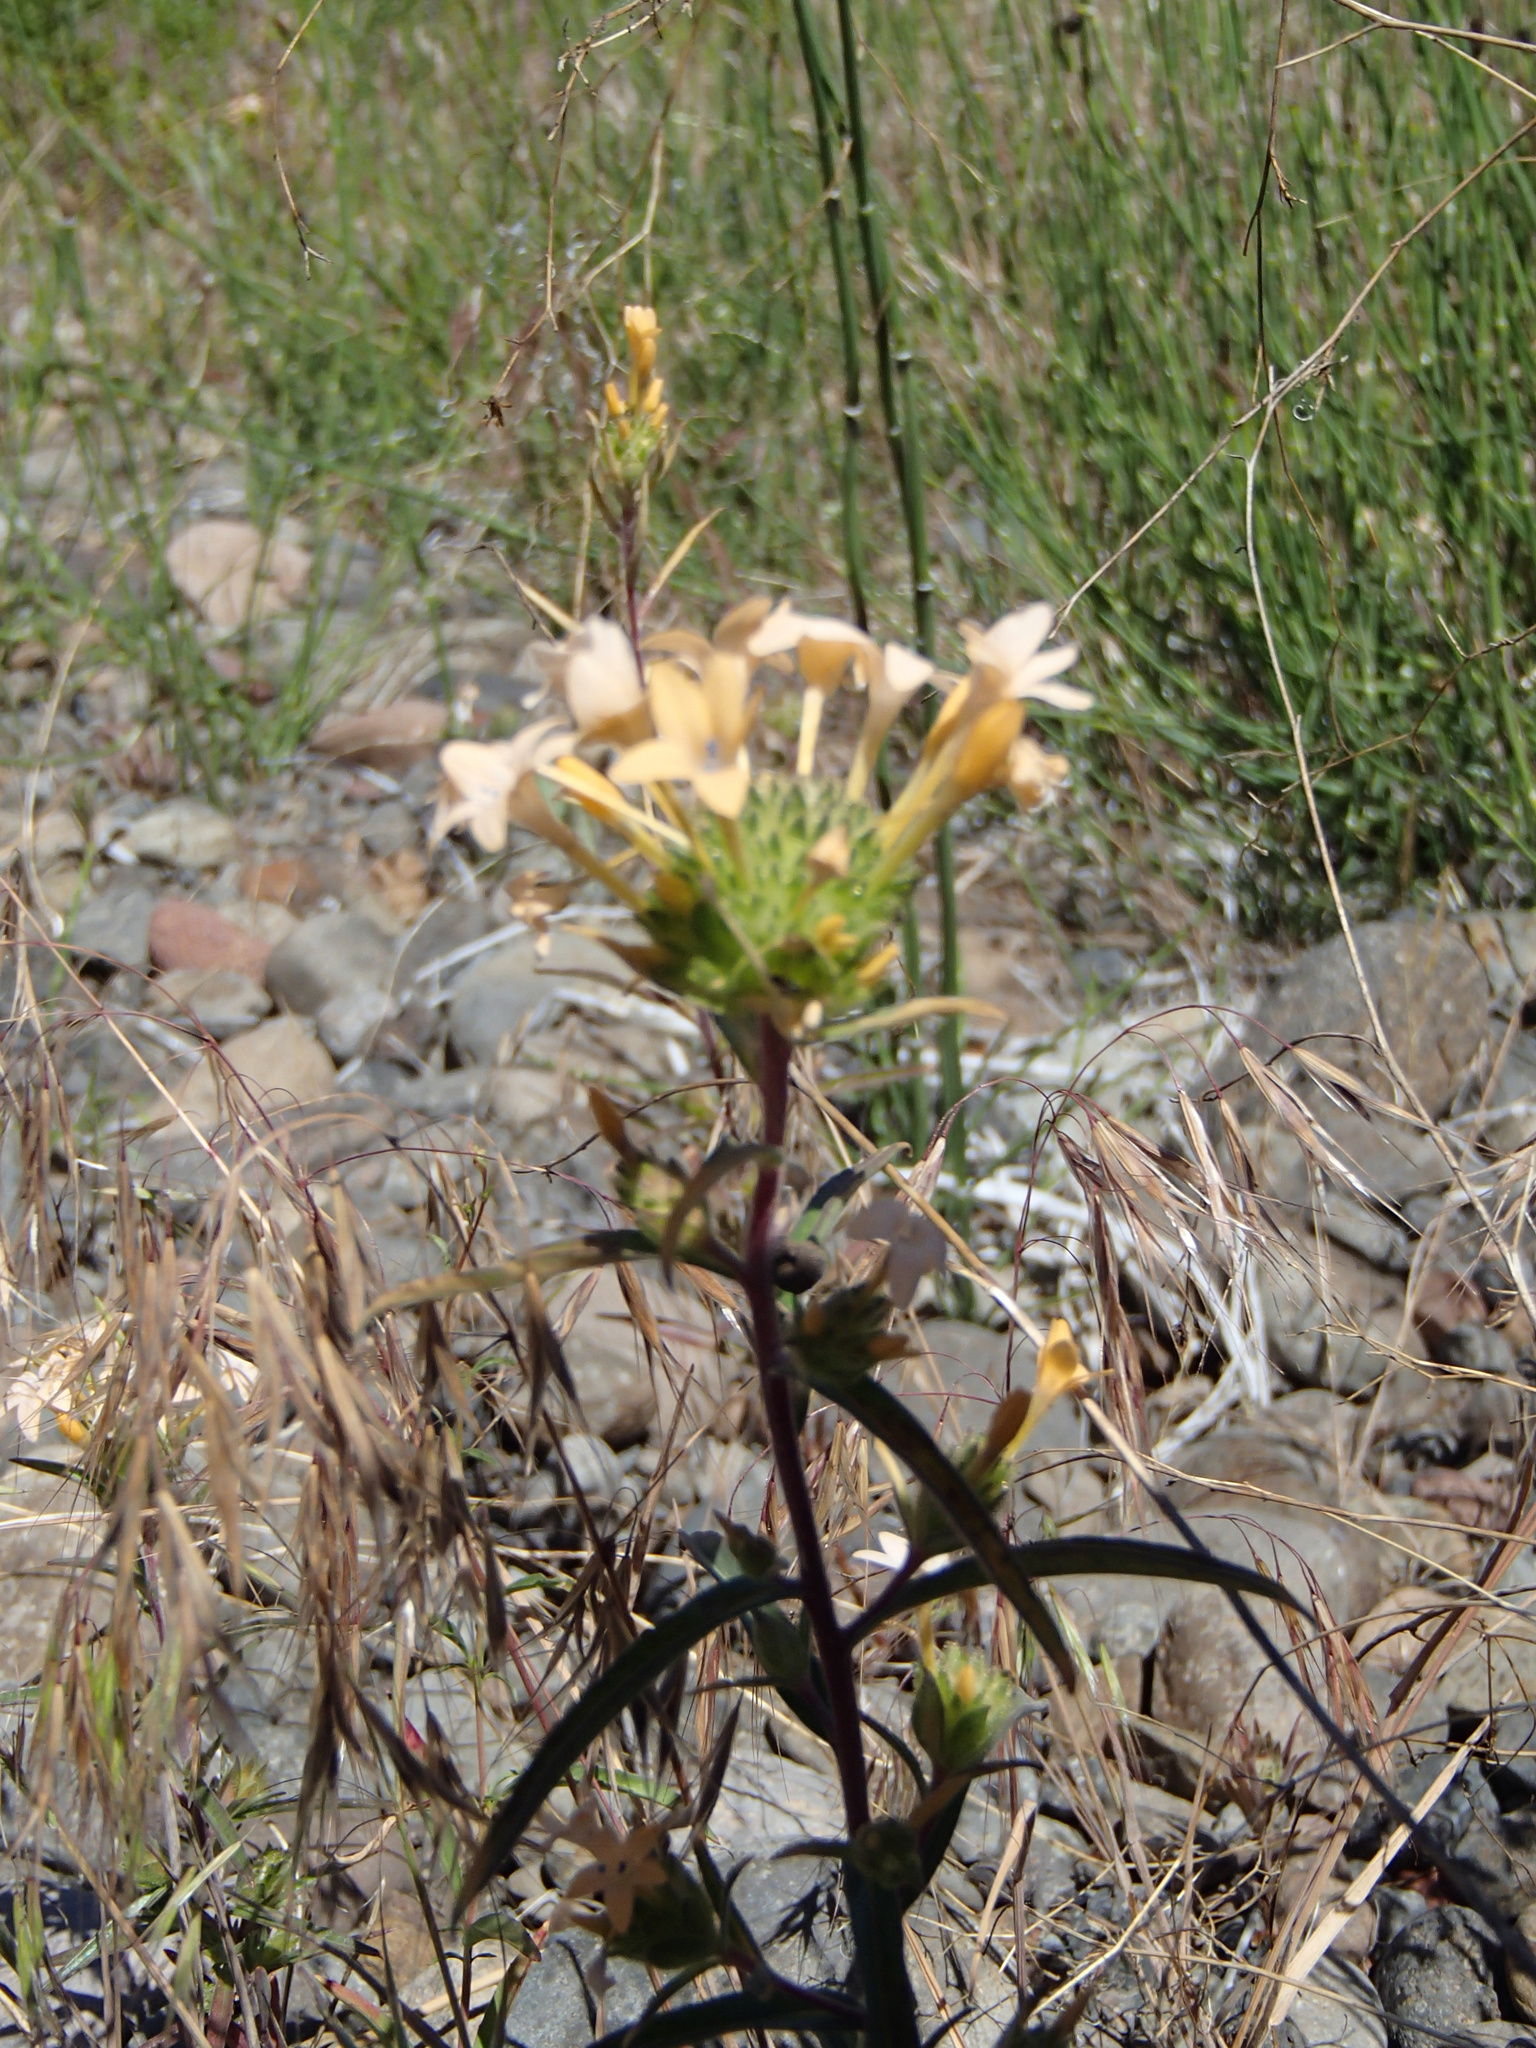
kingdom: Plantae
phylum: Tracheophyta
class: Magnoliopsida
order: Ericales
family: Polemoniaceae
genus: Collomia
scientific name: Collomia grandiflora
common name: California strawflower
